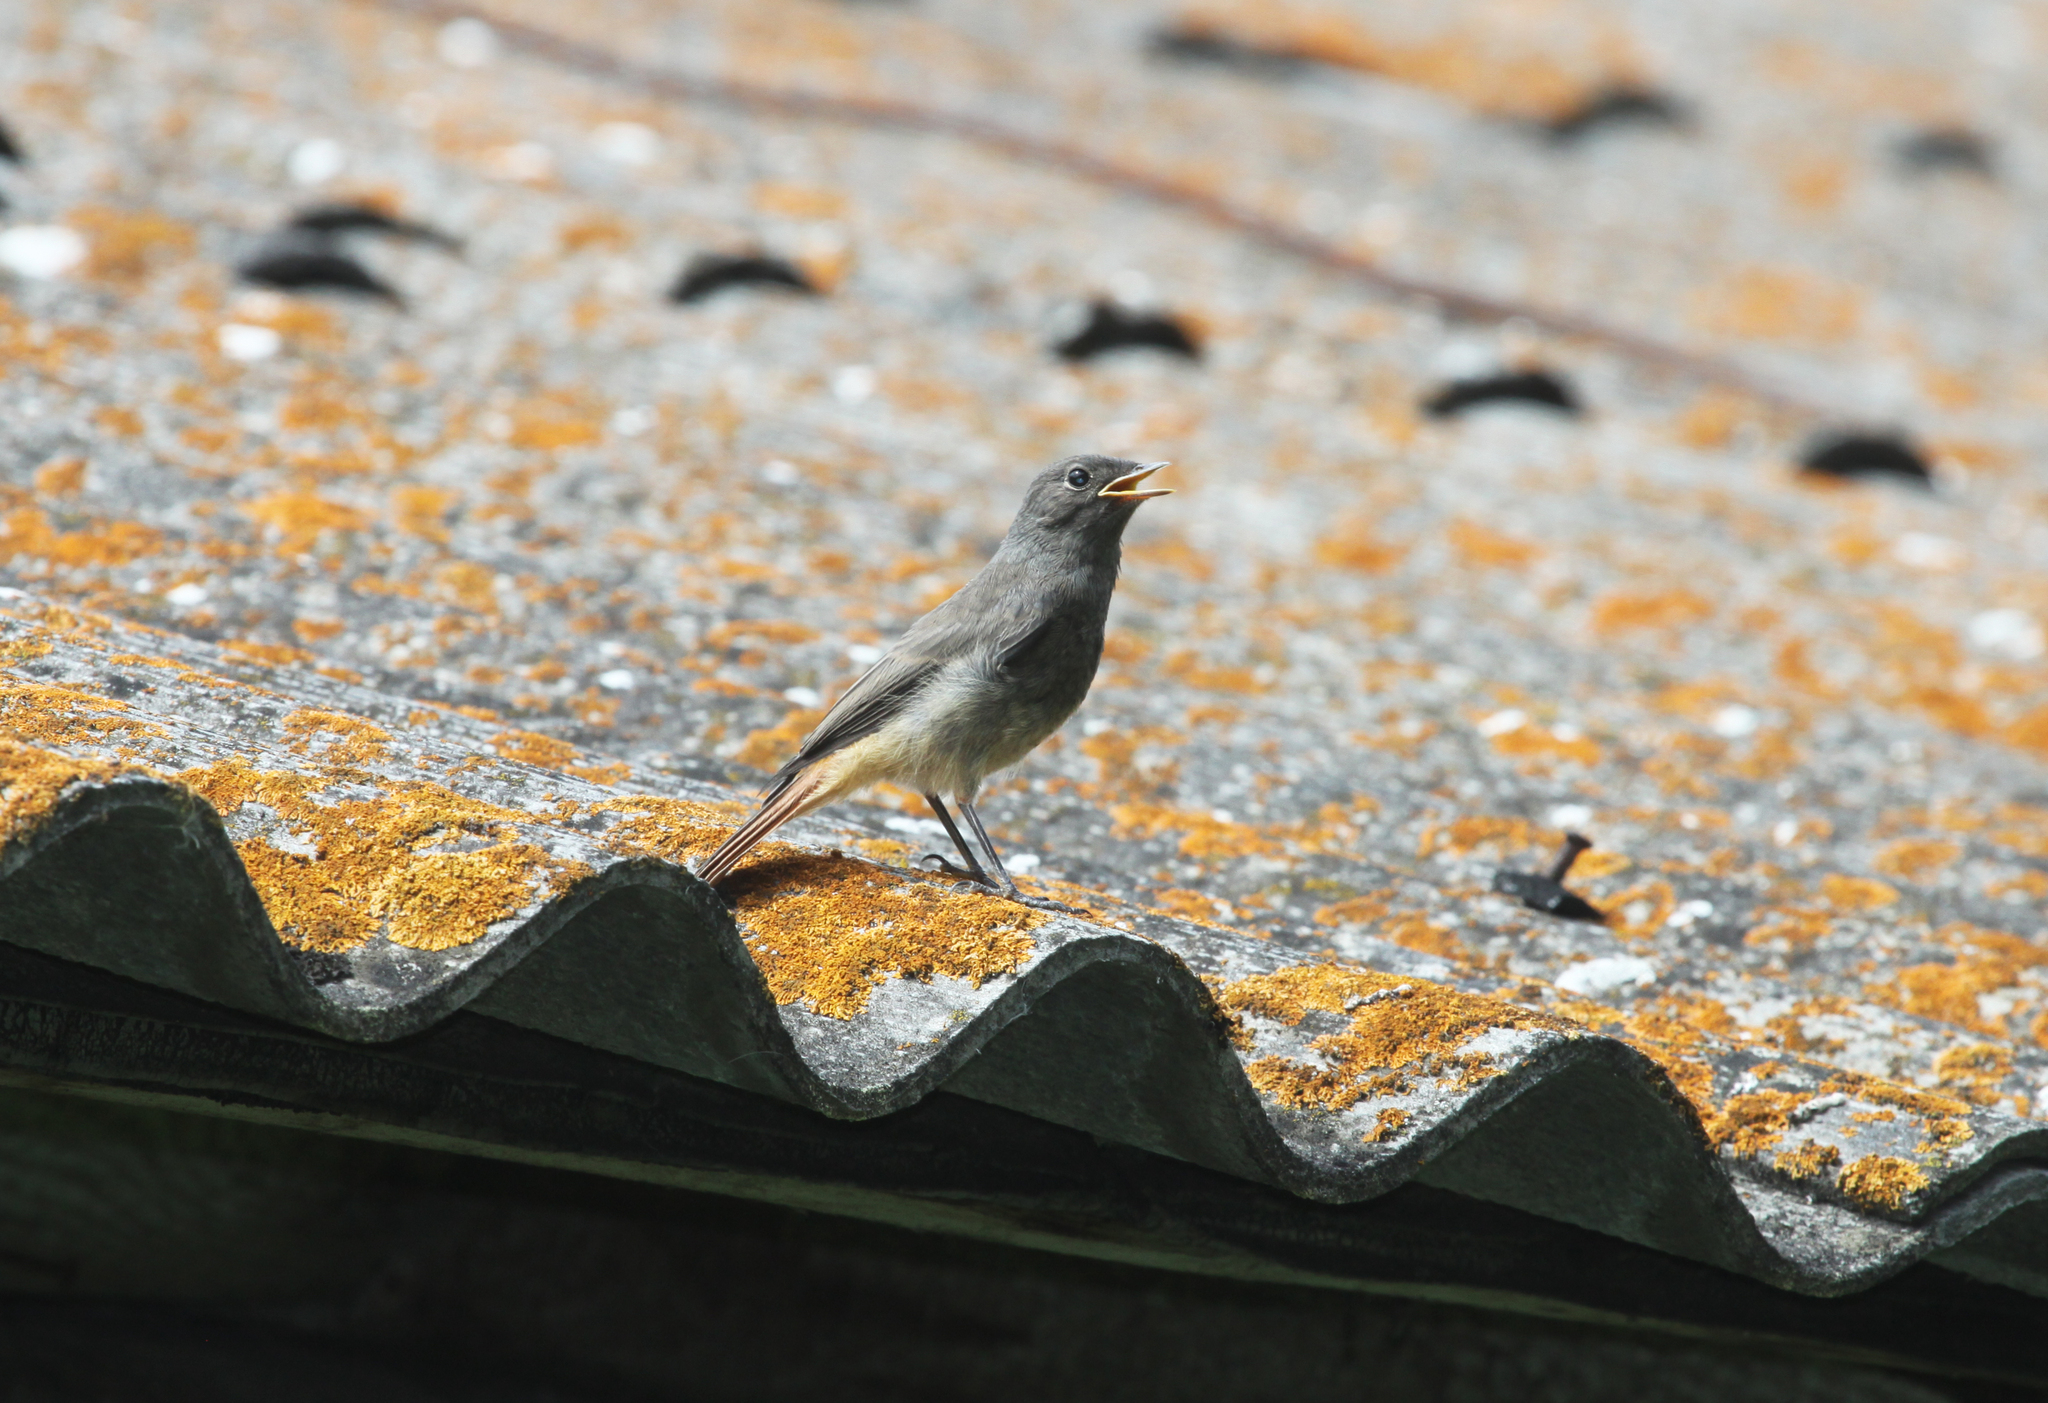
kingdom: Animalia
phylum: Chordata
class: Aves
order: Passeriformes
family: Muscicapidae
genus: Phoenicurus
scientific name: Phoenicurus ochruros
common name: Black redstart
